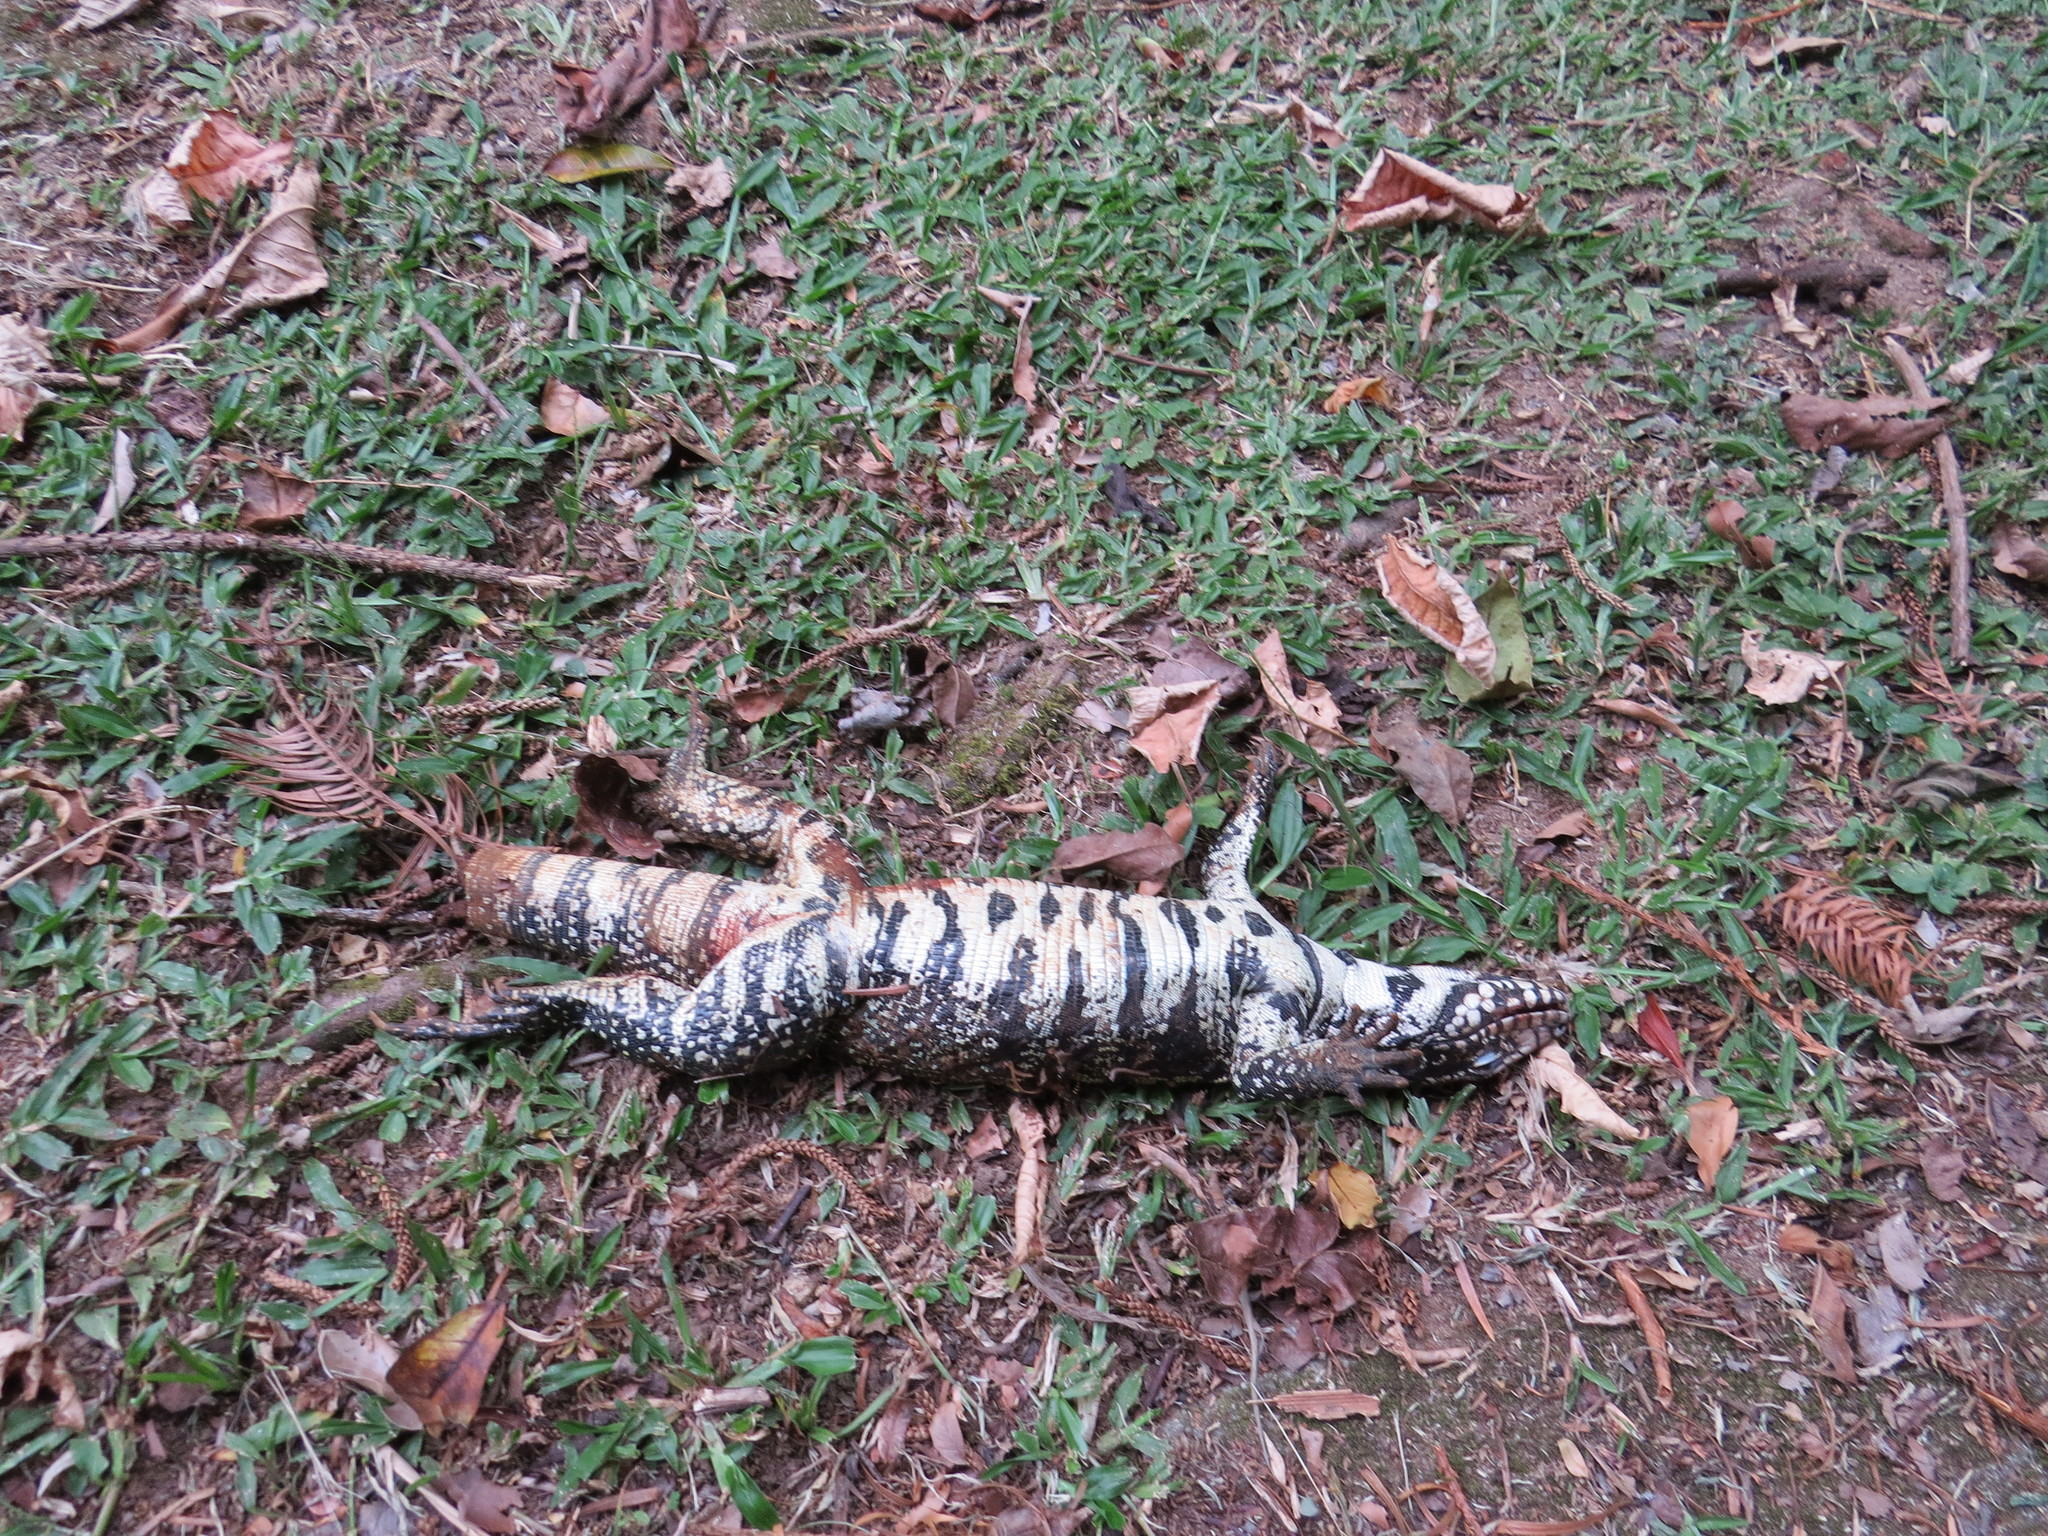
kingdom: Animalia
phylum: Chordata
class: Squamata
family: Teiidae
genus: Salvator
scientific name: Salvator merianae
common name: Argentine black and white tegu
